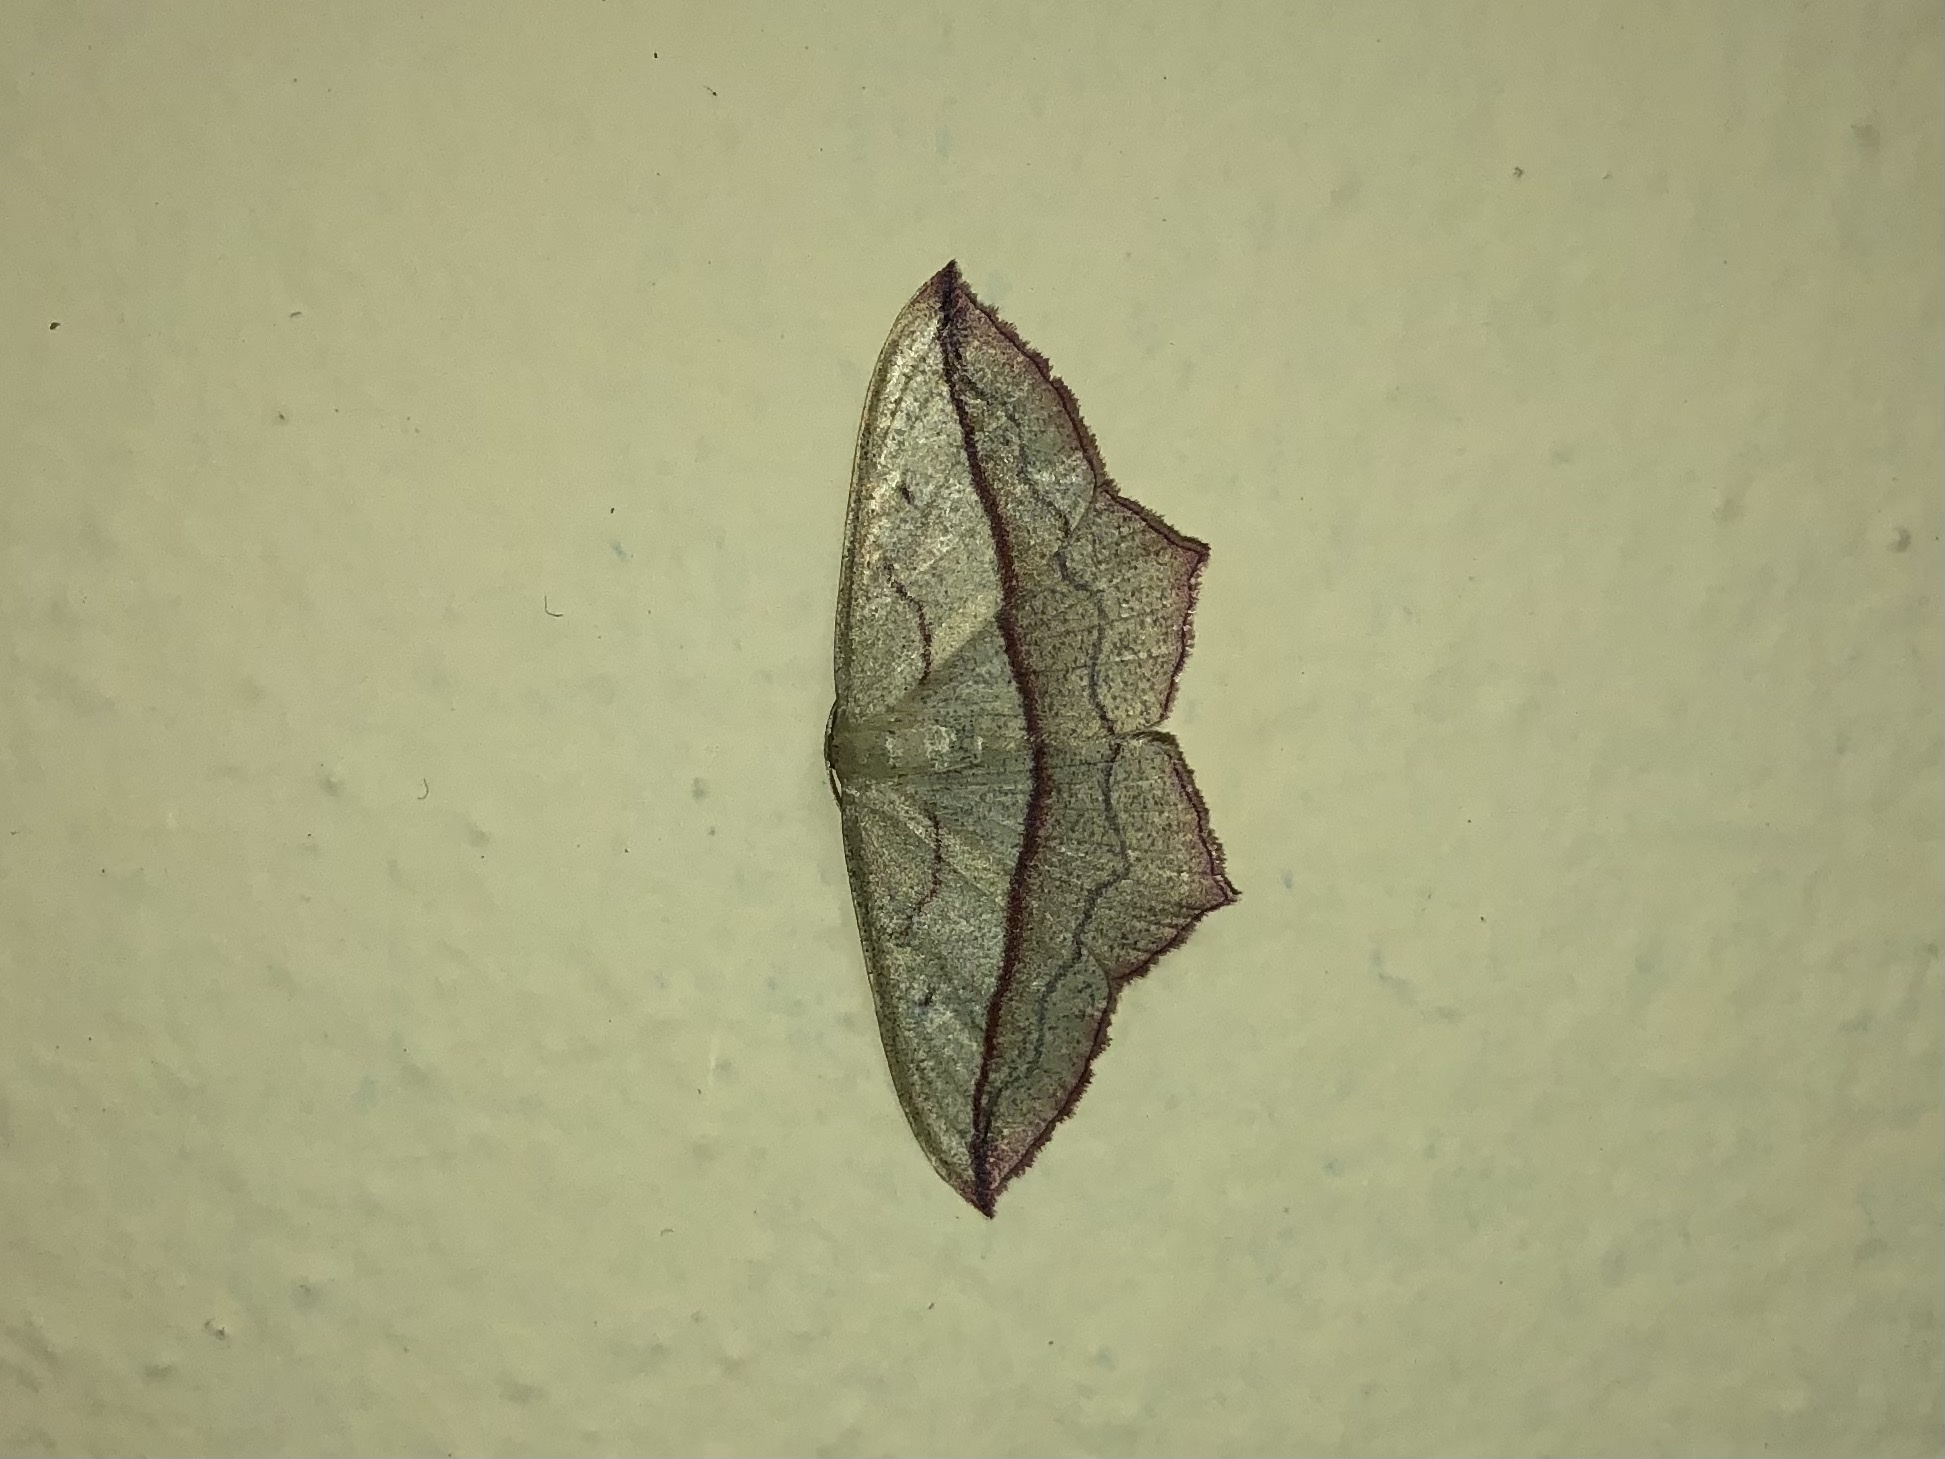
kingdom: Animalia
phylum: Arthropoda
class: Insecta
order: Lepidoptera
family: Geometridae
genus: Timandra
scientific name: Timandra comae
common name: Blood-vein
